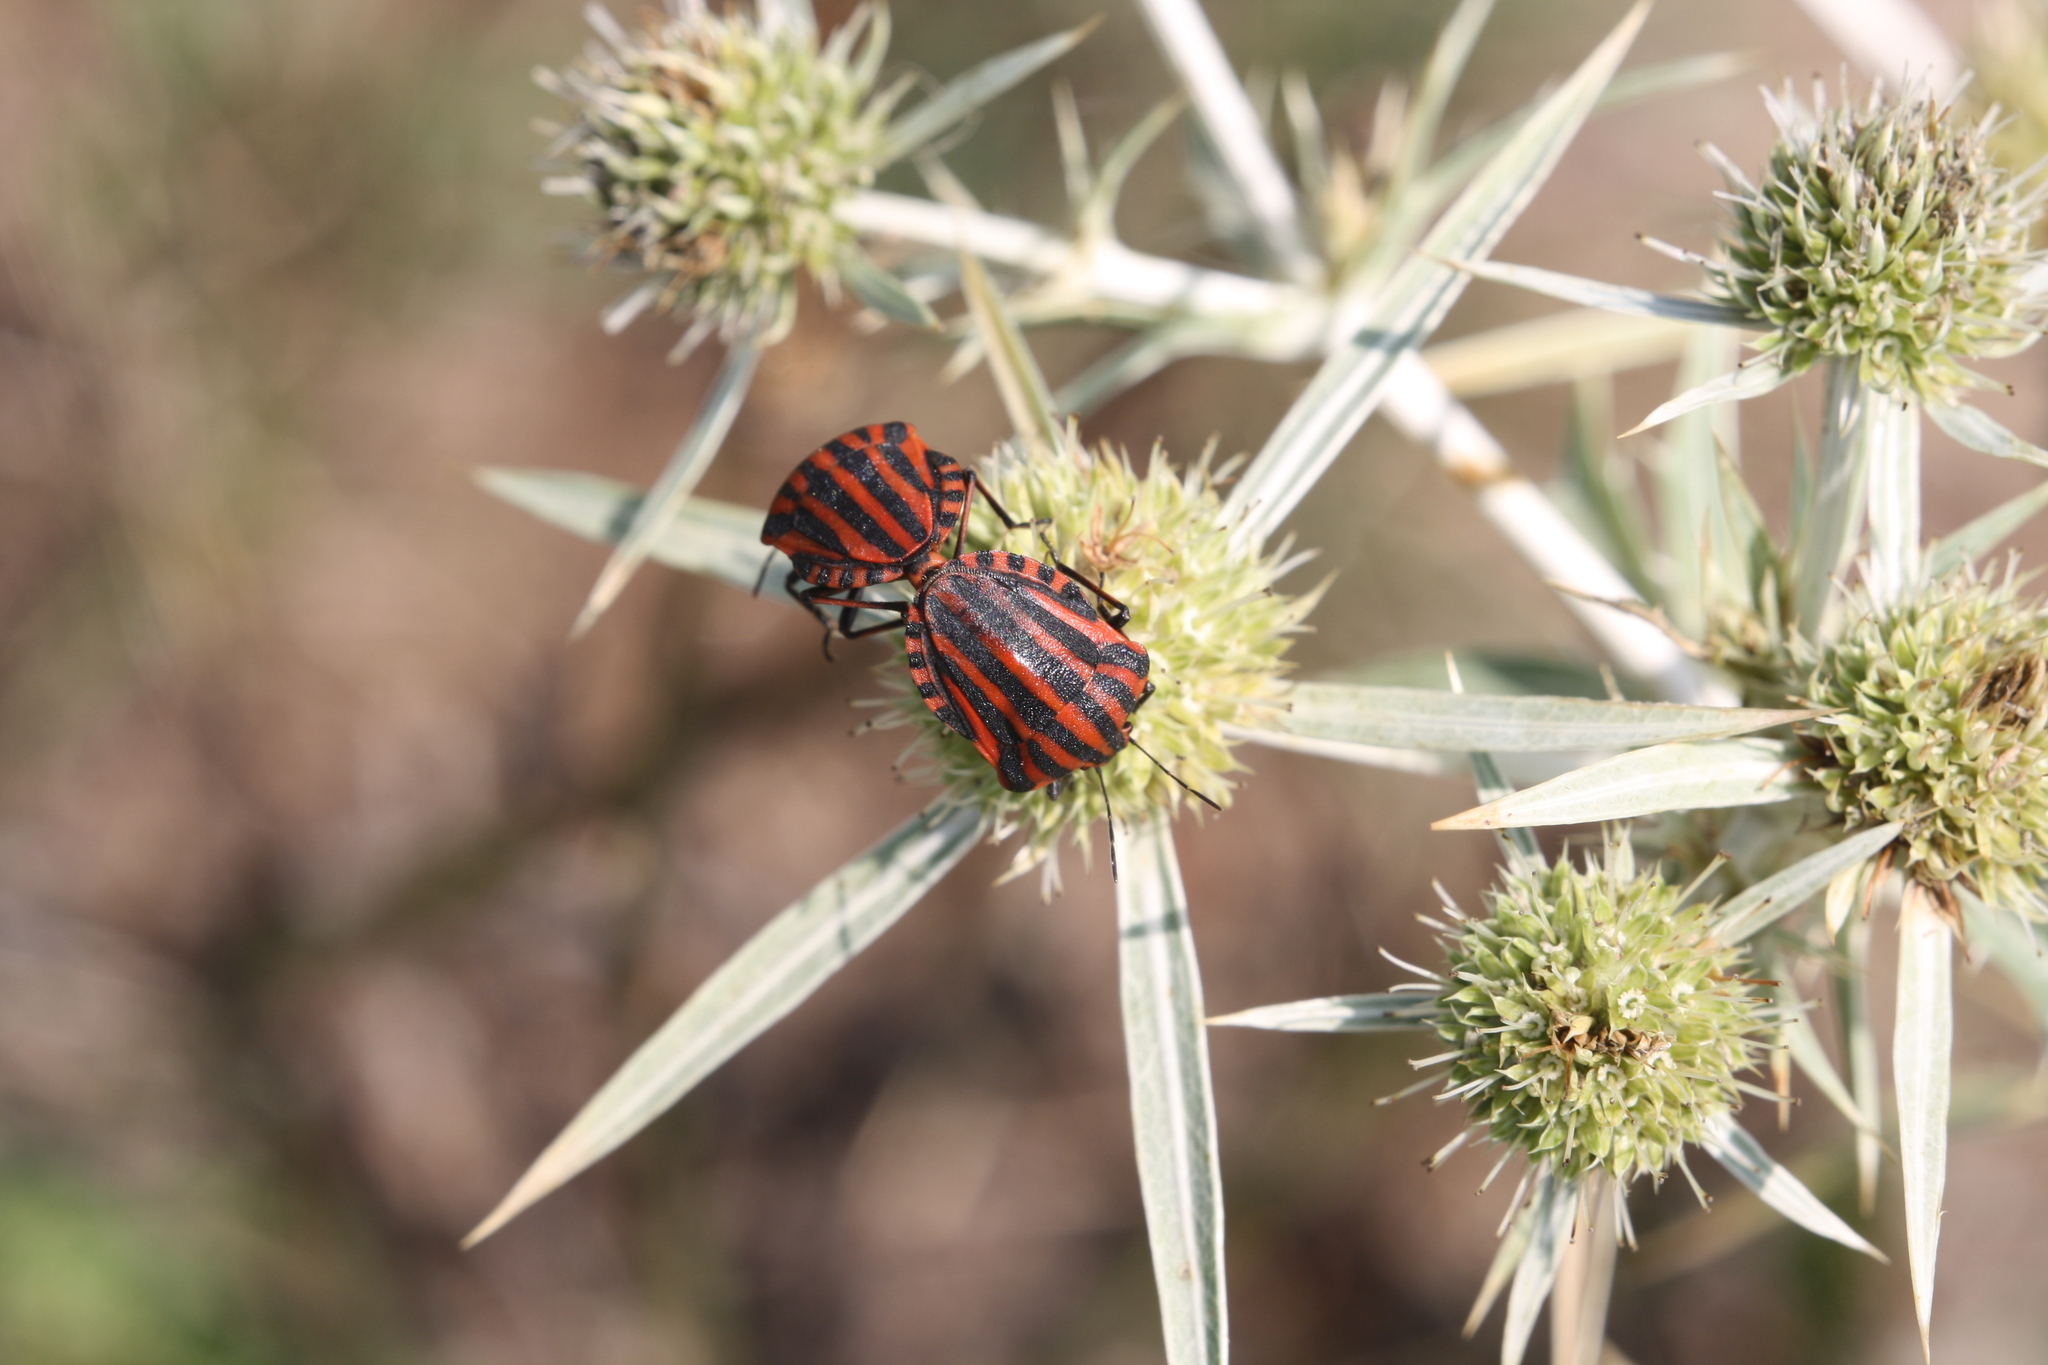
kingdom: Animalia
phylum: Arthropoda
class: Insecta
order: Hemiptera
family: Pentatomidae
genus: Graphosoma
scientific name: Graphosoma italicum
